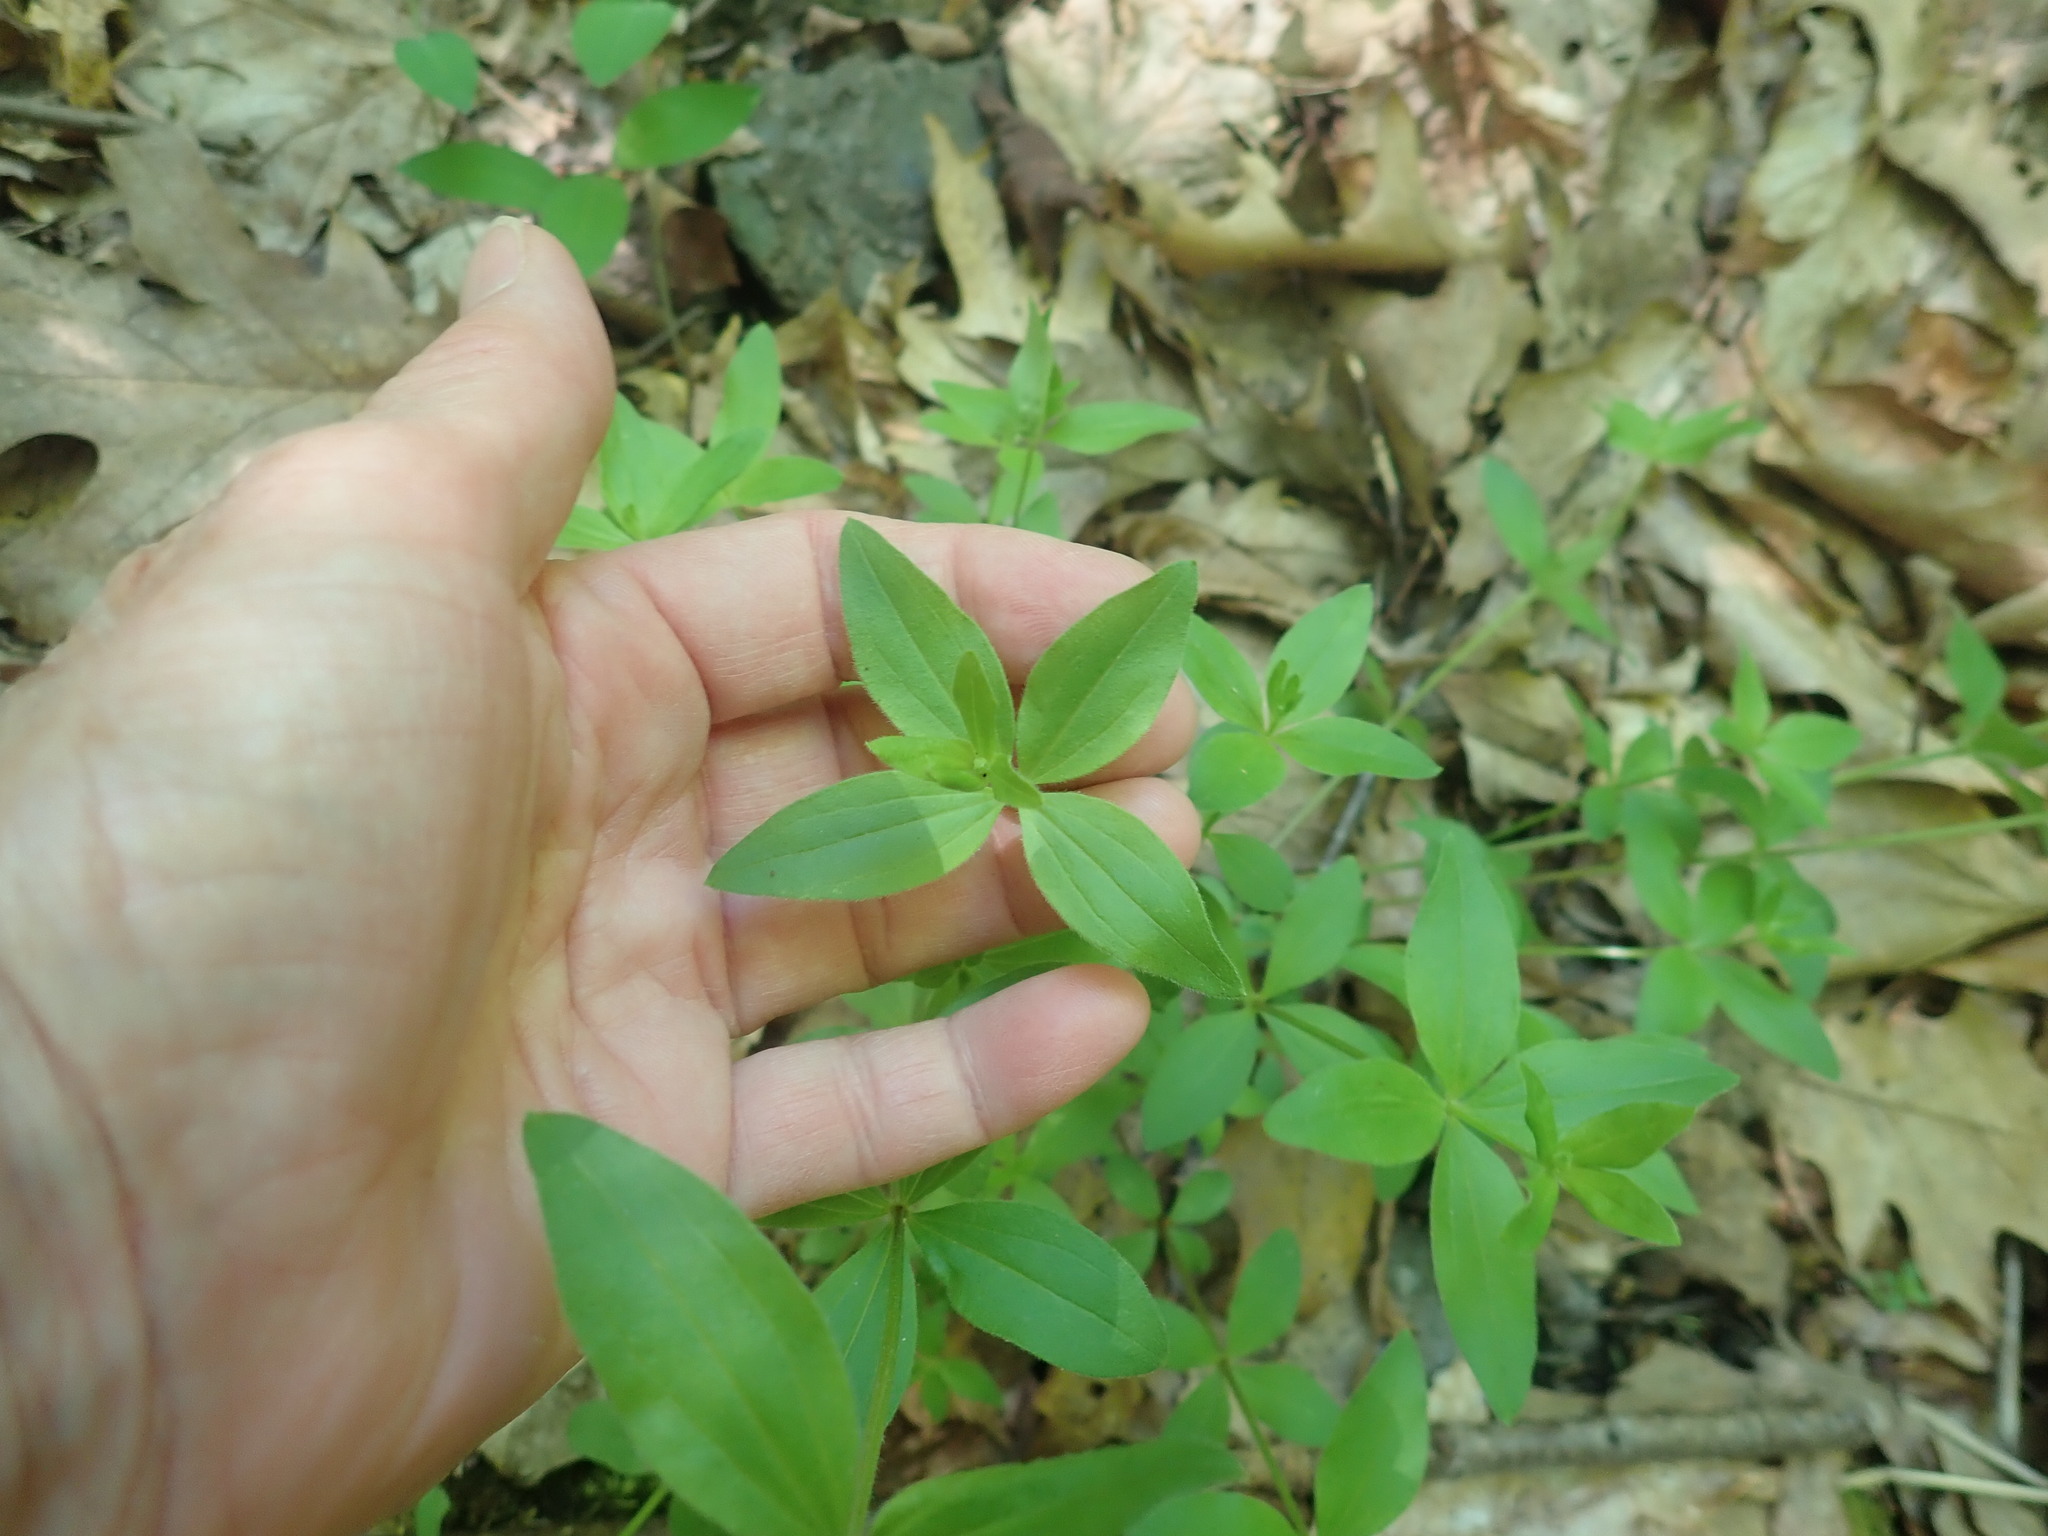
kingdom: Plantae
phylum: Tracheophyta
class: Magnoliopsida
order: Gentianales
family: Rubiaceae
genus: Galium
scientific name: Galium circaezans
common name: Forest bedstraw
